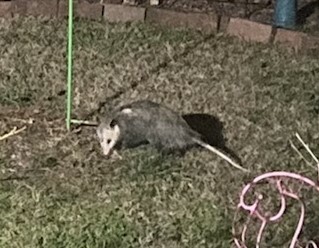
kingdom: Animalia
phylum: Chordata
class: Mammalia
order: Didelphimorphia
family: Didelphidae
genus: Didelphis
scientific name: Didelphis virginiana
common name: Virginia opossum
